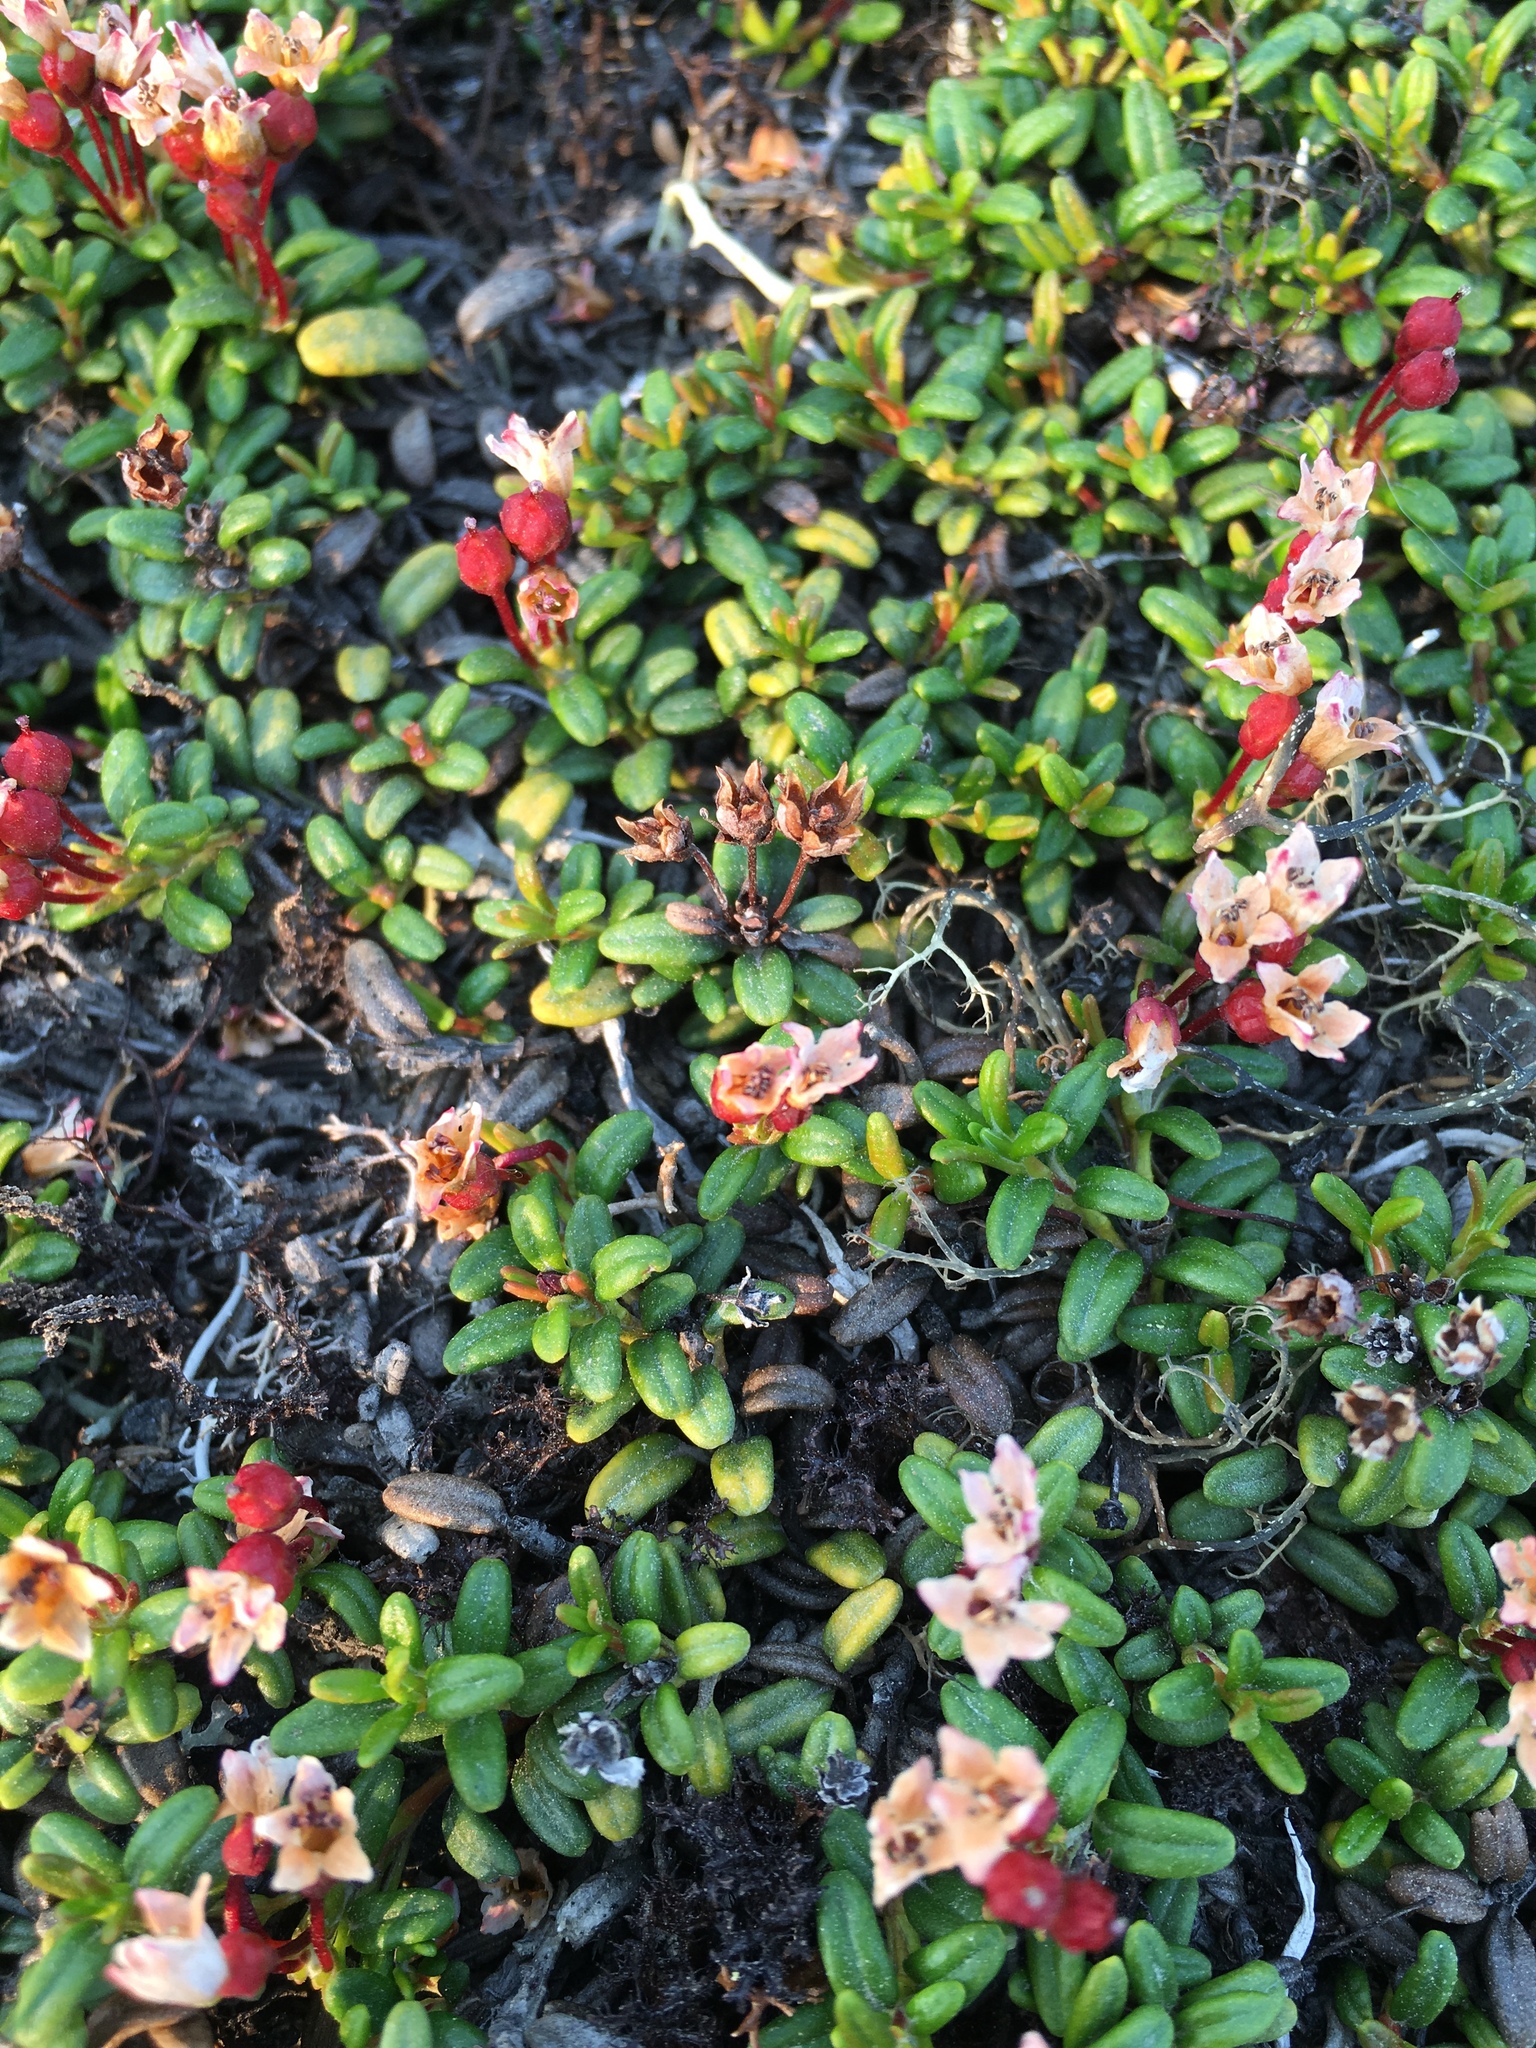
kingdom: Plantae
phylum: Tracheophyta
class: Magnoliopsida
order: Ericales
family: Ericaceae
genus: Kalmia
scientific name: Kalmia procumbens
